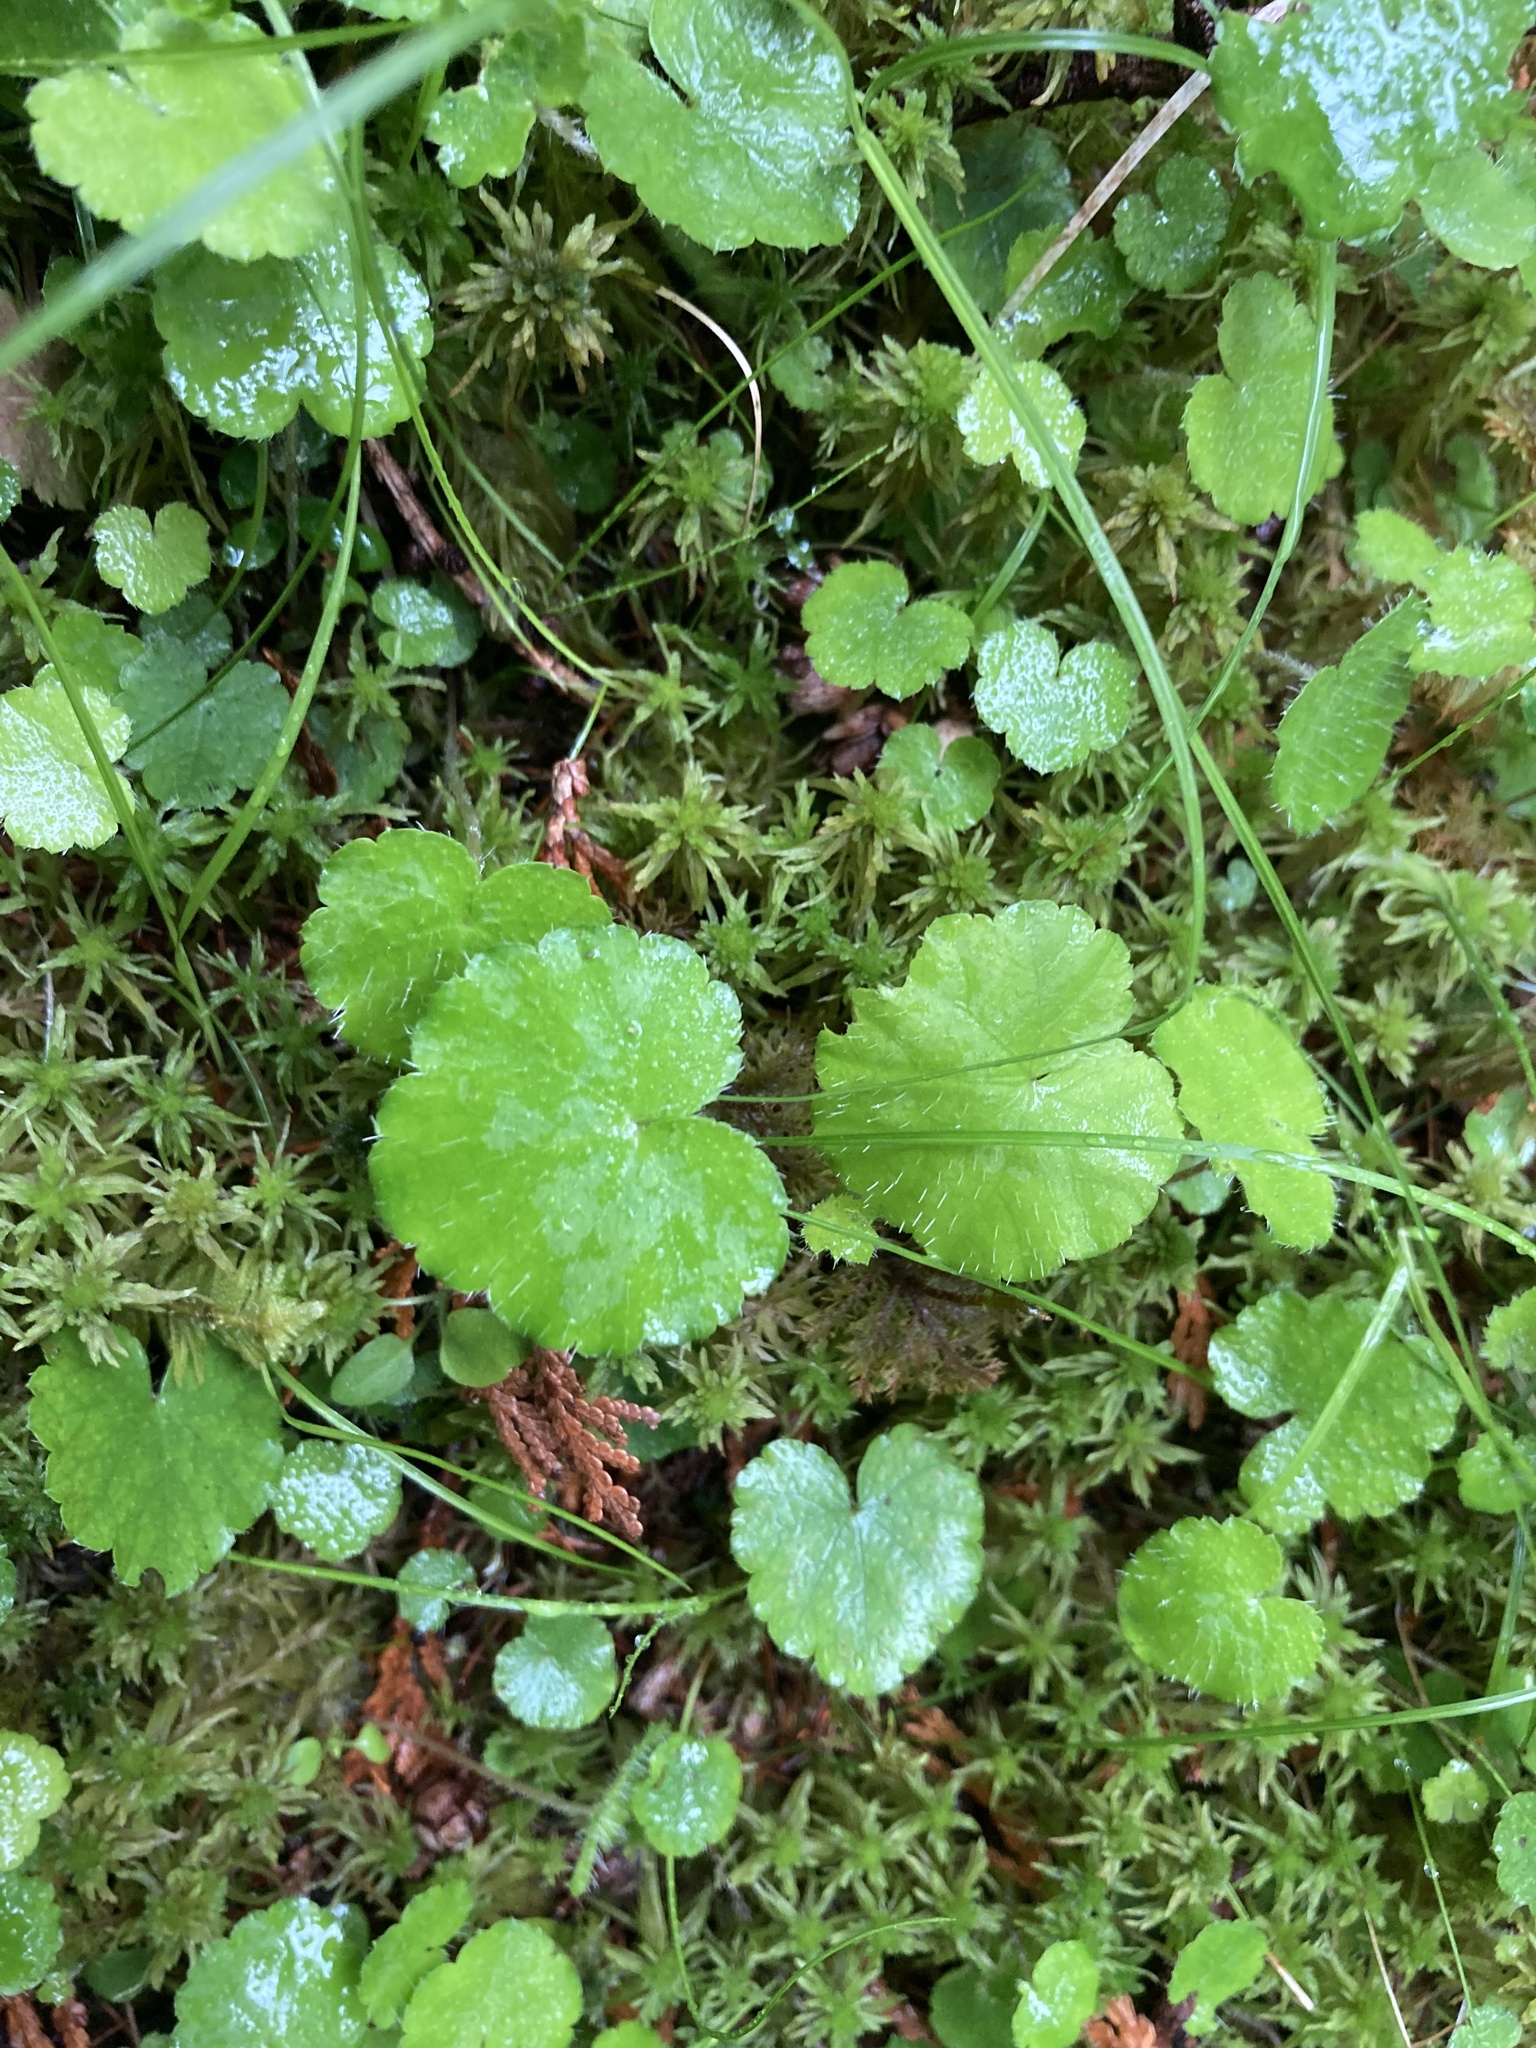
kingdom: Plantae
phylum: Tracheophyta
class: Magnoliopsida
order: Saxifragales
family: Saxifragaceae
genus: Mitella
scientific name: Mitella nuda
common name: Bare-stemmed bishop's-cap
